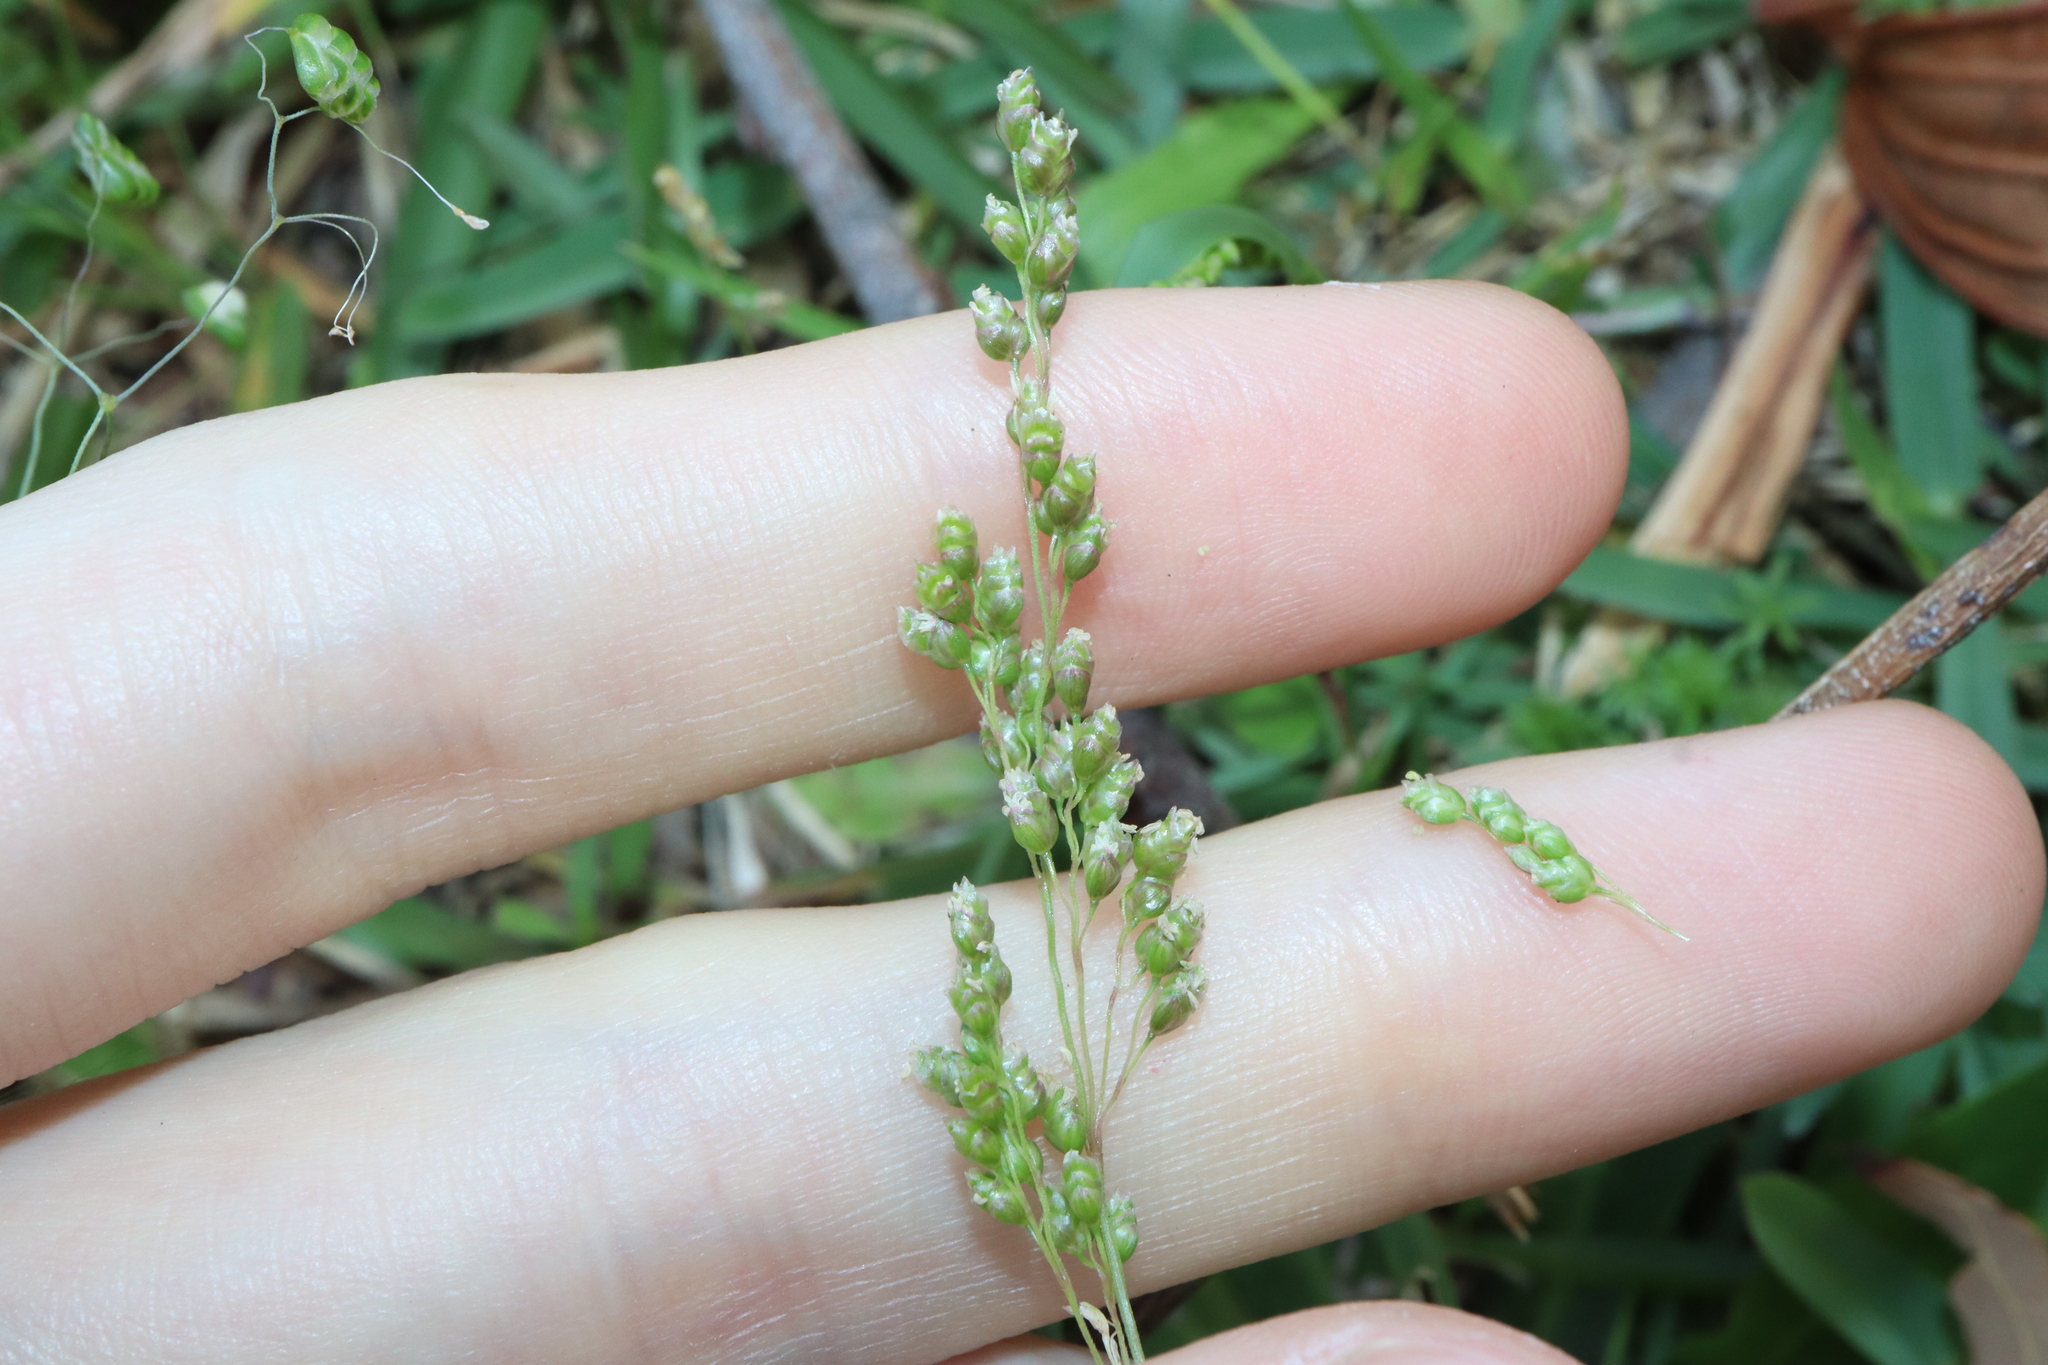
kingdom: Plantae
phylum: Tracheophyta
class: Liliopsida
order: Poales
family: Poaceae
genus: Chascolytrum
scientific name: Chascolytrum subaristatum
